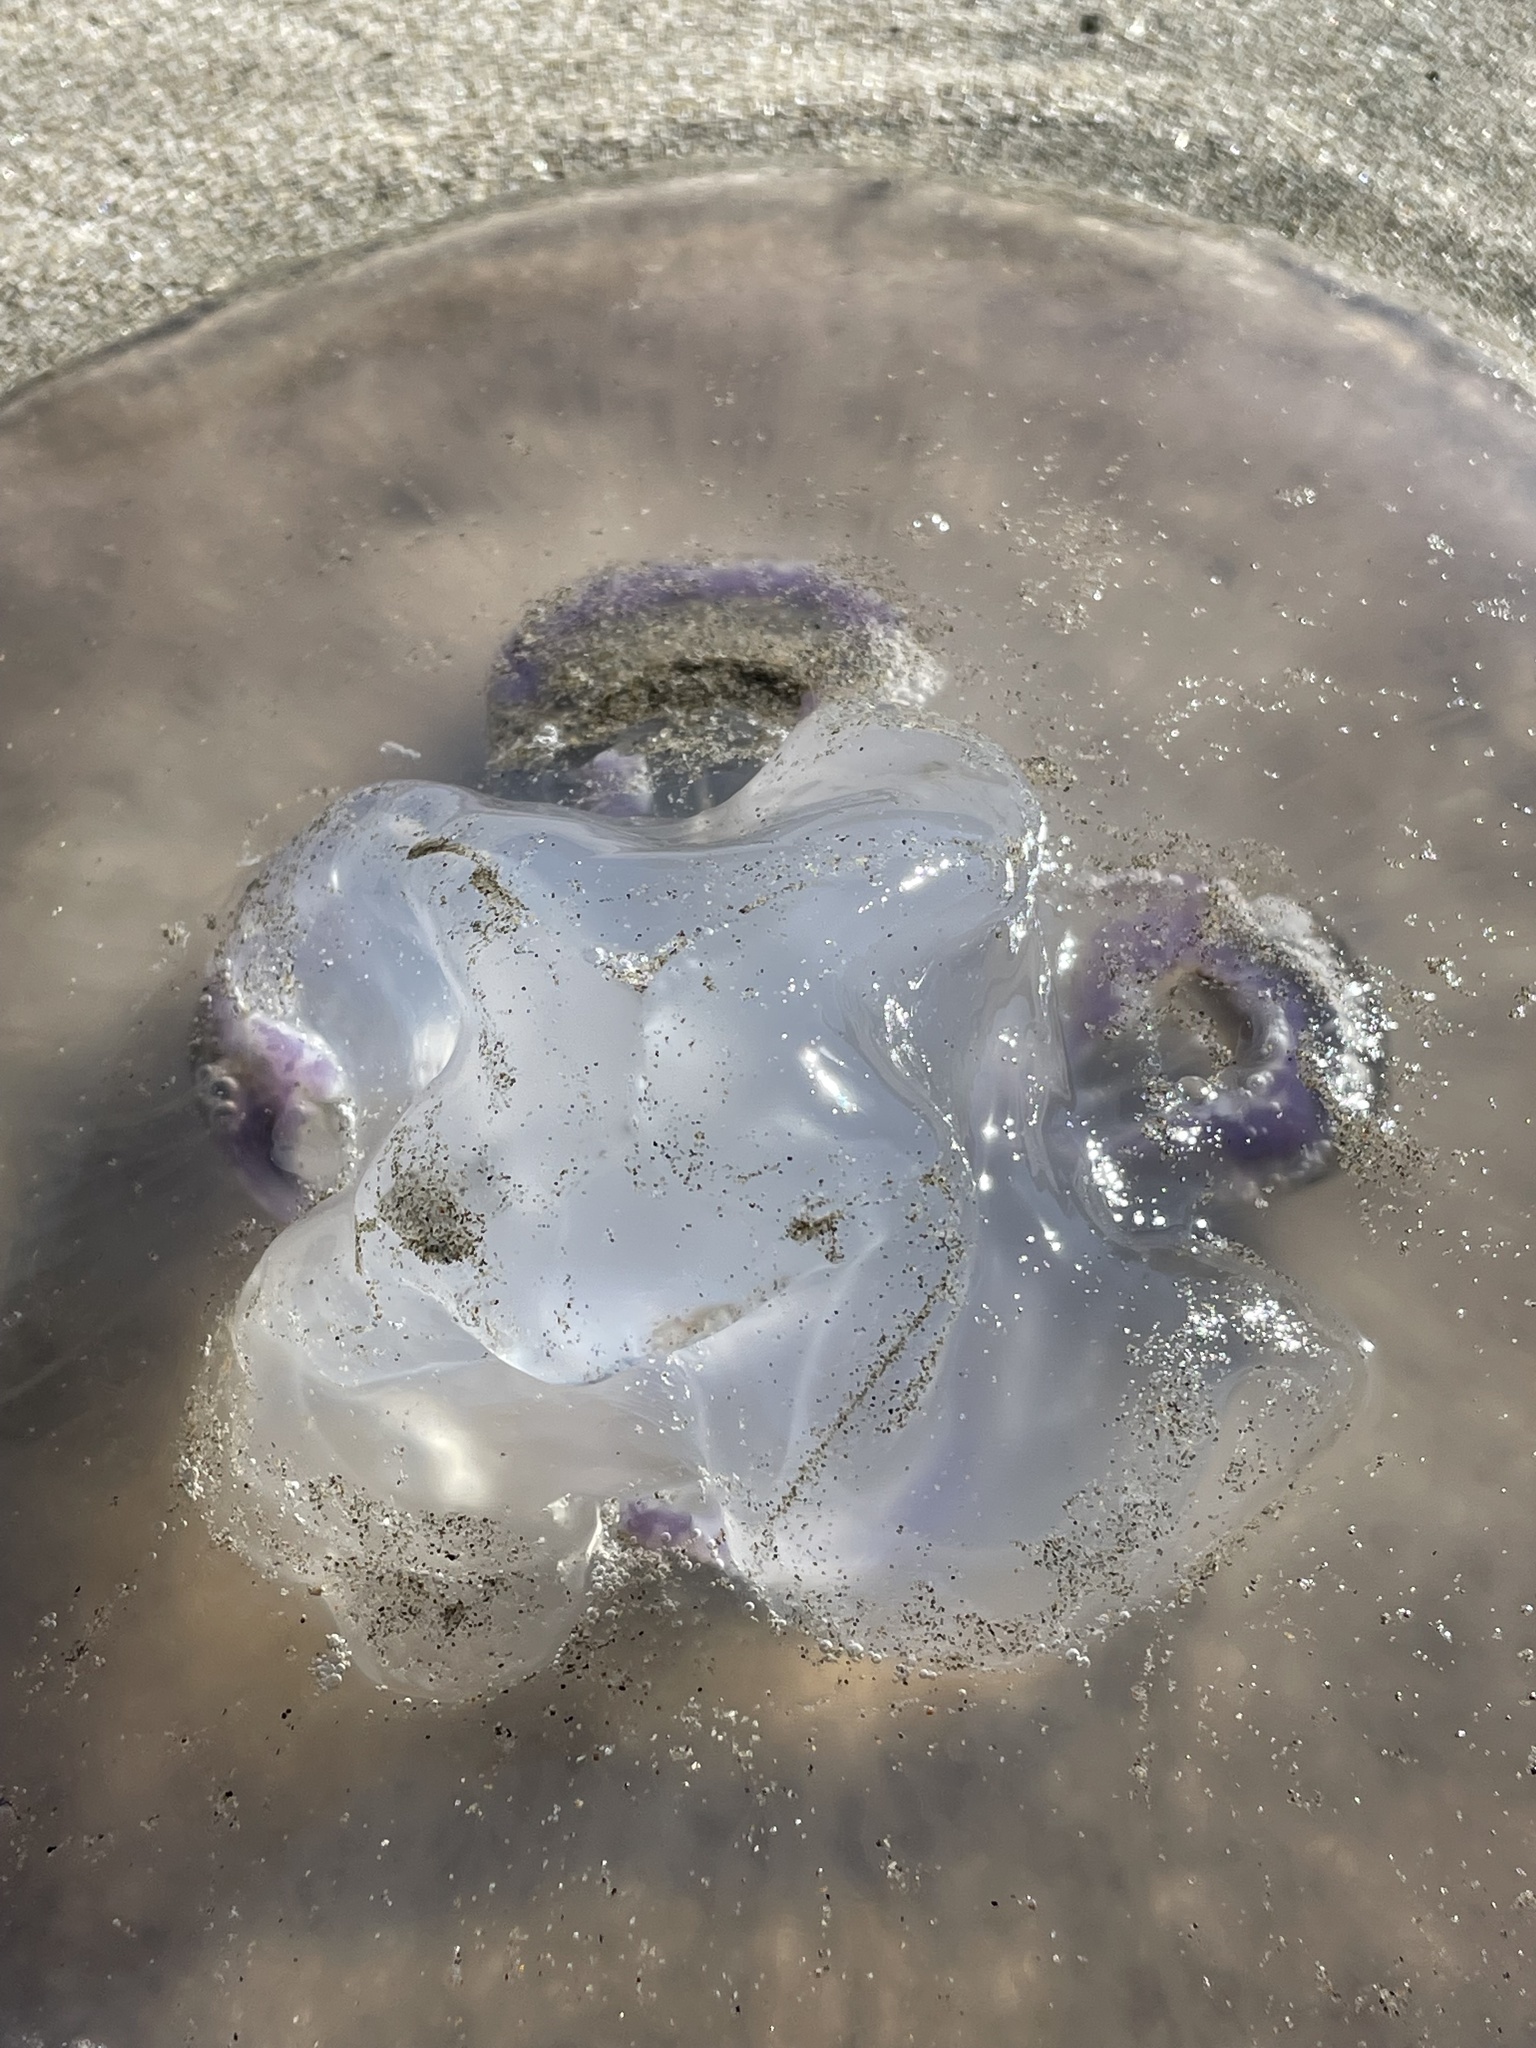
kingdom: Animalia
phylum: Cnidaria
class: Scyphozoa
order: Semaeostomeae
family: Ulmaridae
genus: Aurelia
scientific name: Aurelia labiata
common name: Pacific moon jelly
